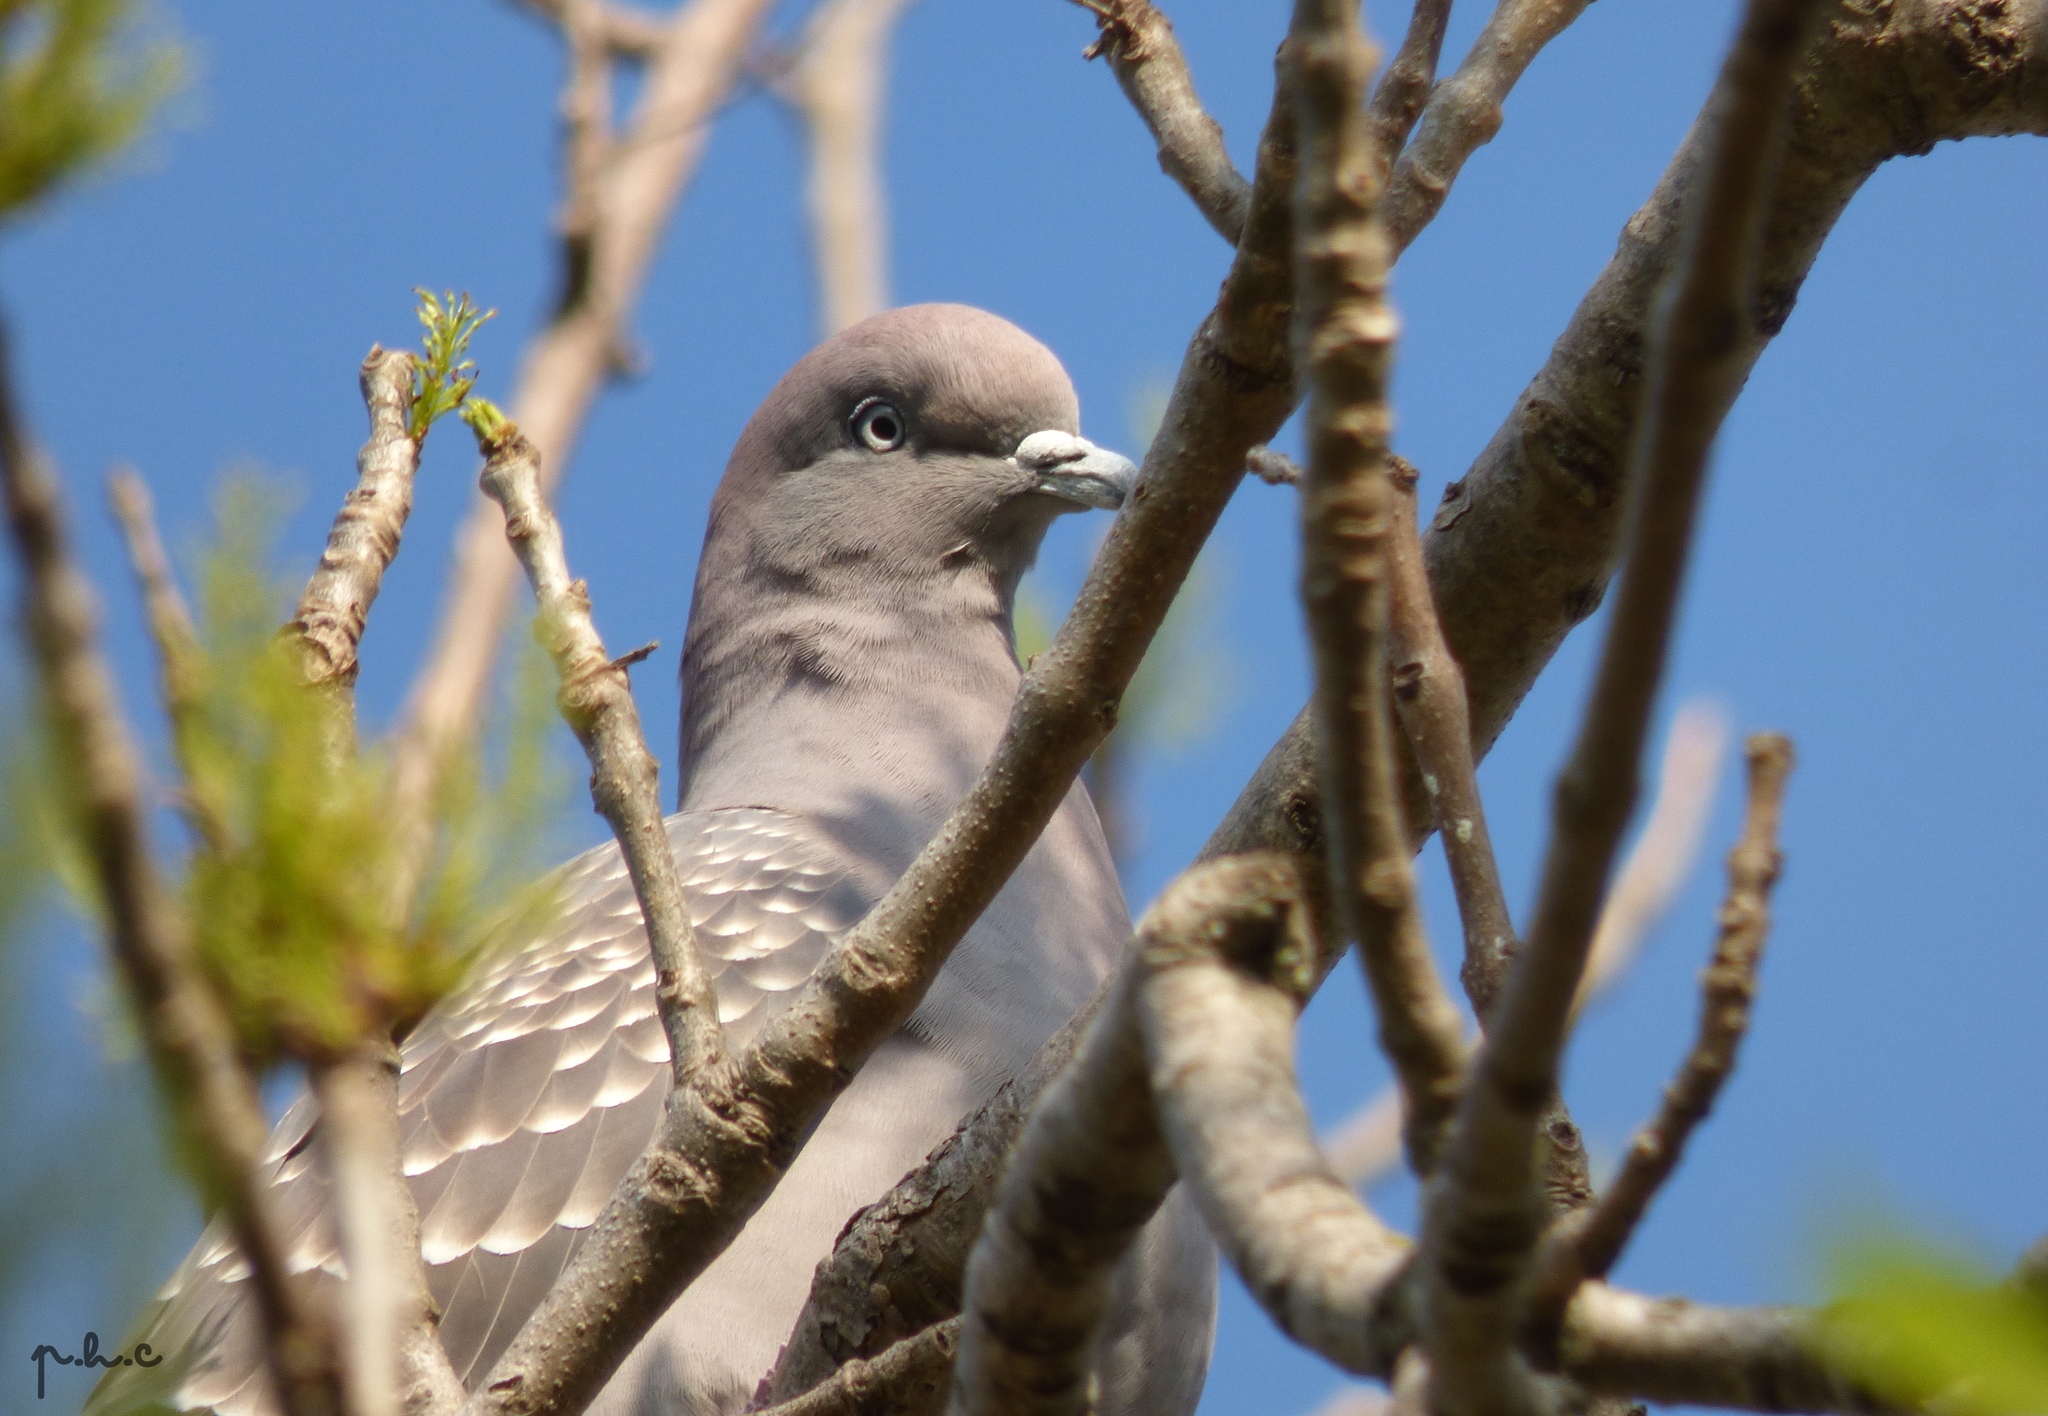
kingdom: Animalia
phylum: Chordata
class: Aves
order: Columbiformes
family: Columbidae
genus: Patagioenas
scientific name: Patagioenas maculosa
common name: Spot-winged pigeon
